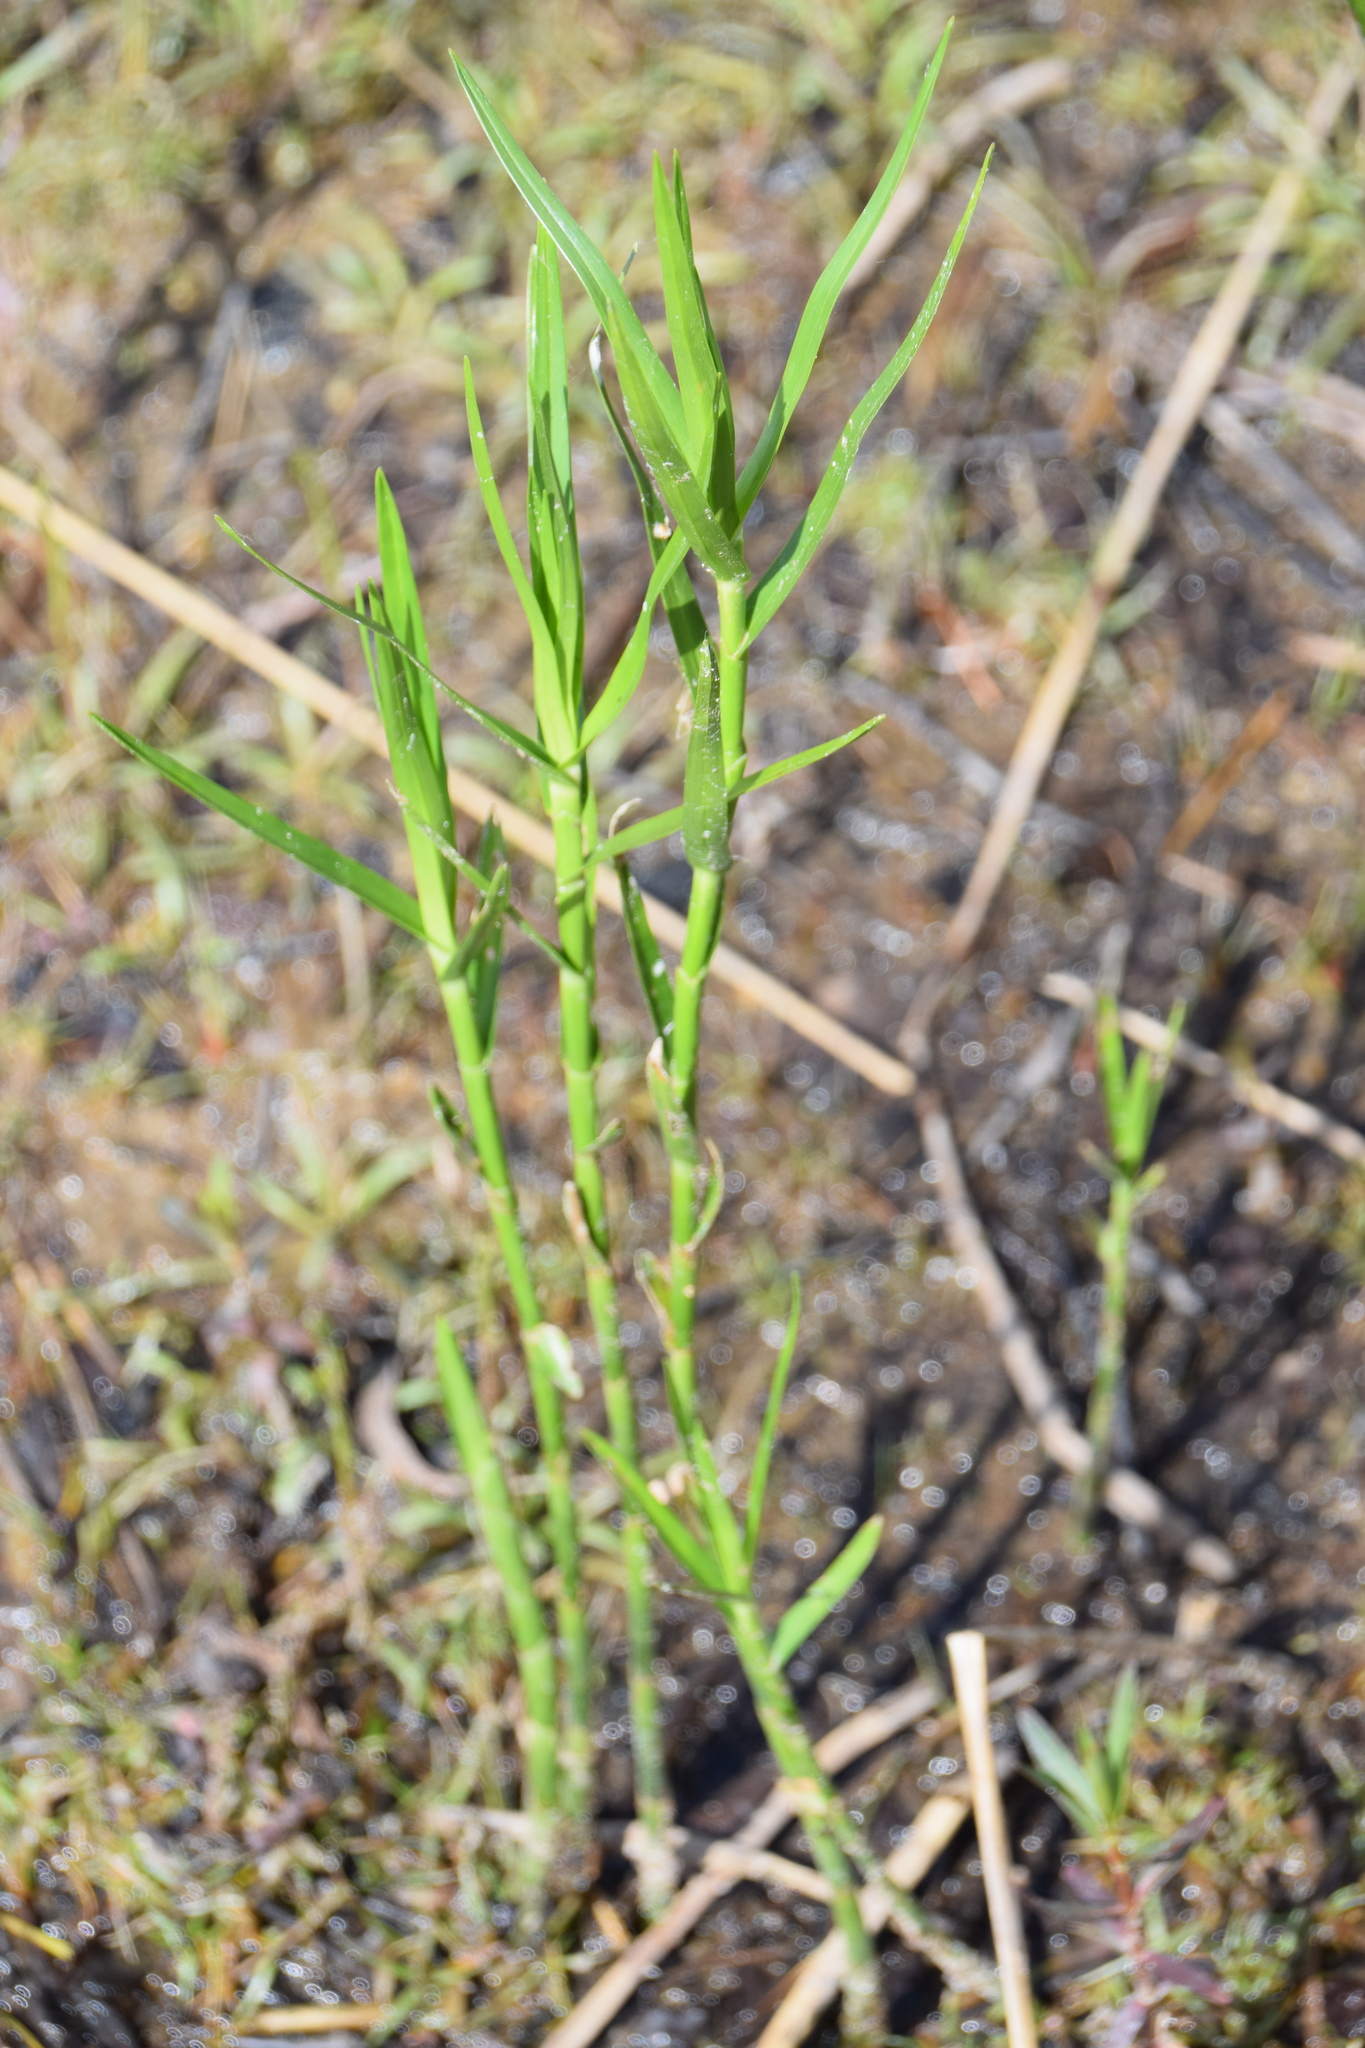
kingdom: Plantae
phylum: Tracheophyta
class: Liliopsida
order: Poales
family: Cyperaceae
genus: Dulichium
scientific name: Dulichium arundinaceum
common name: Three-way sedge
